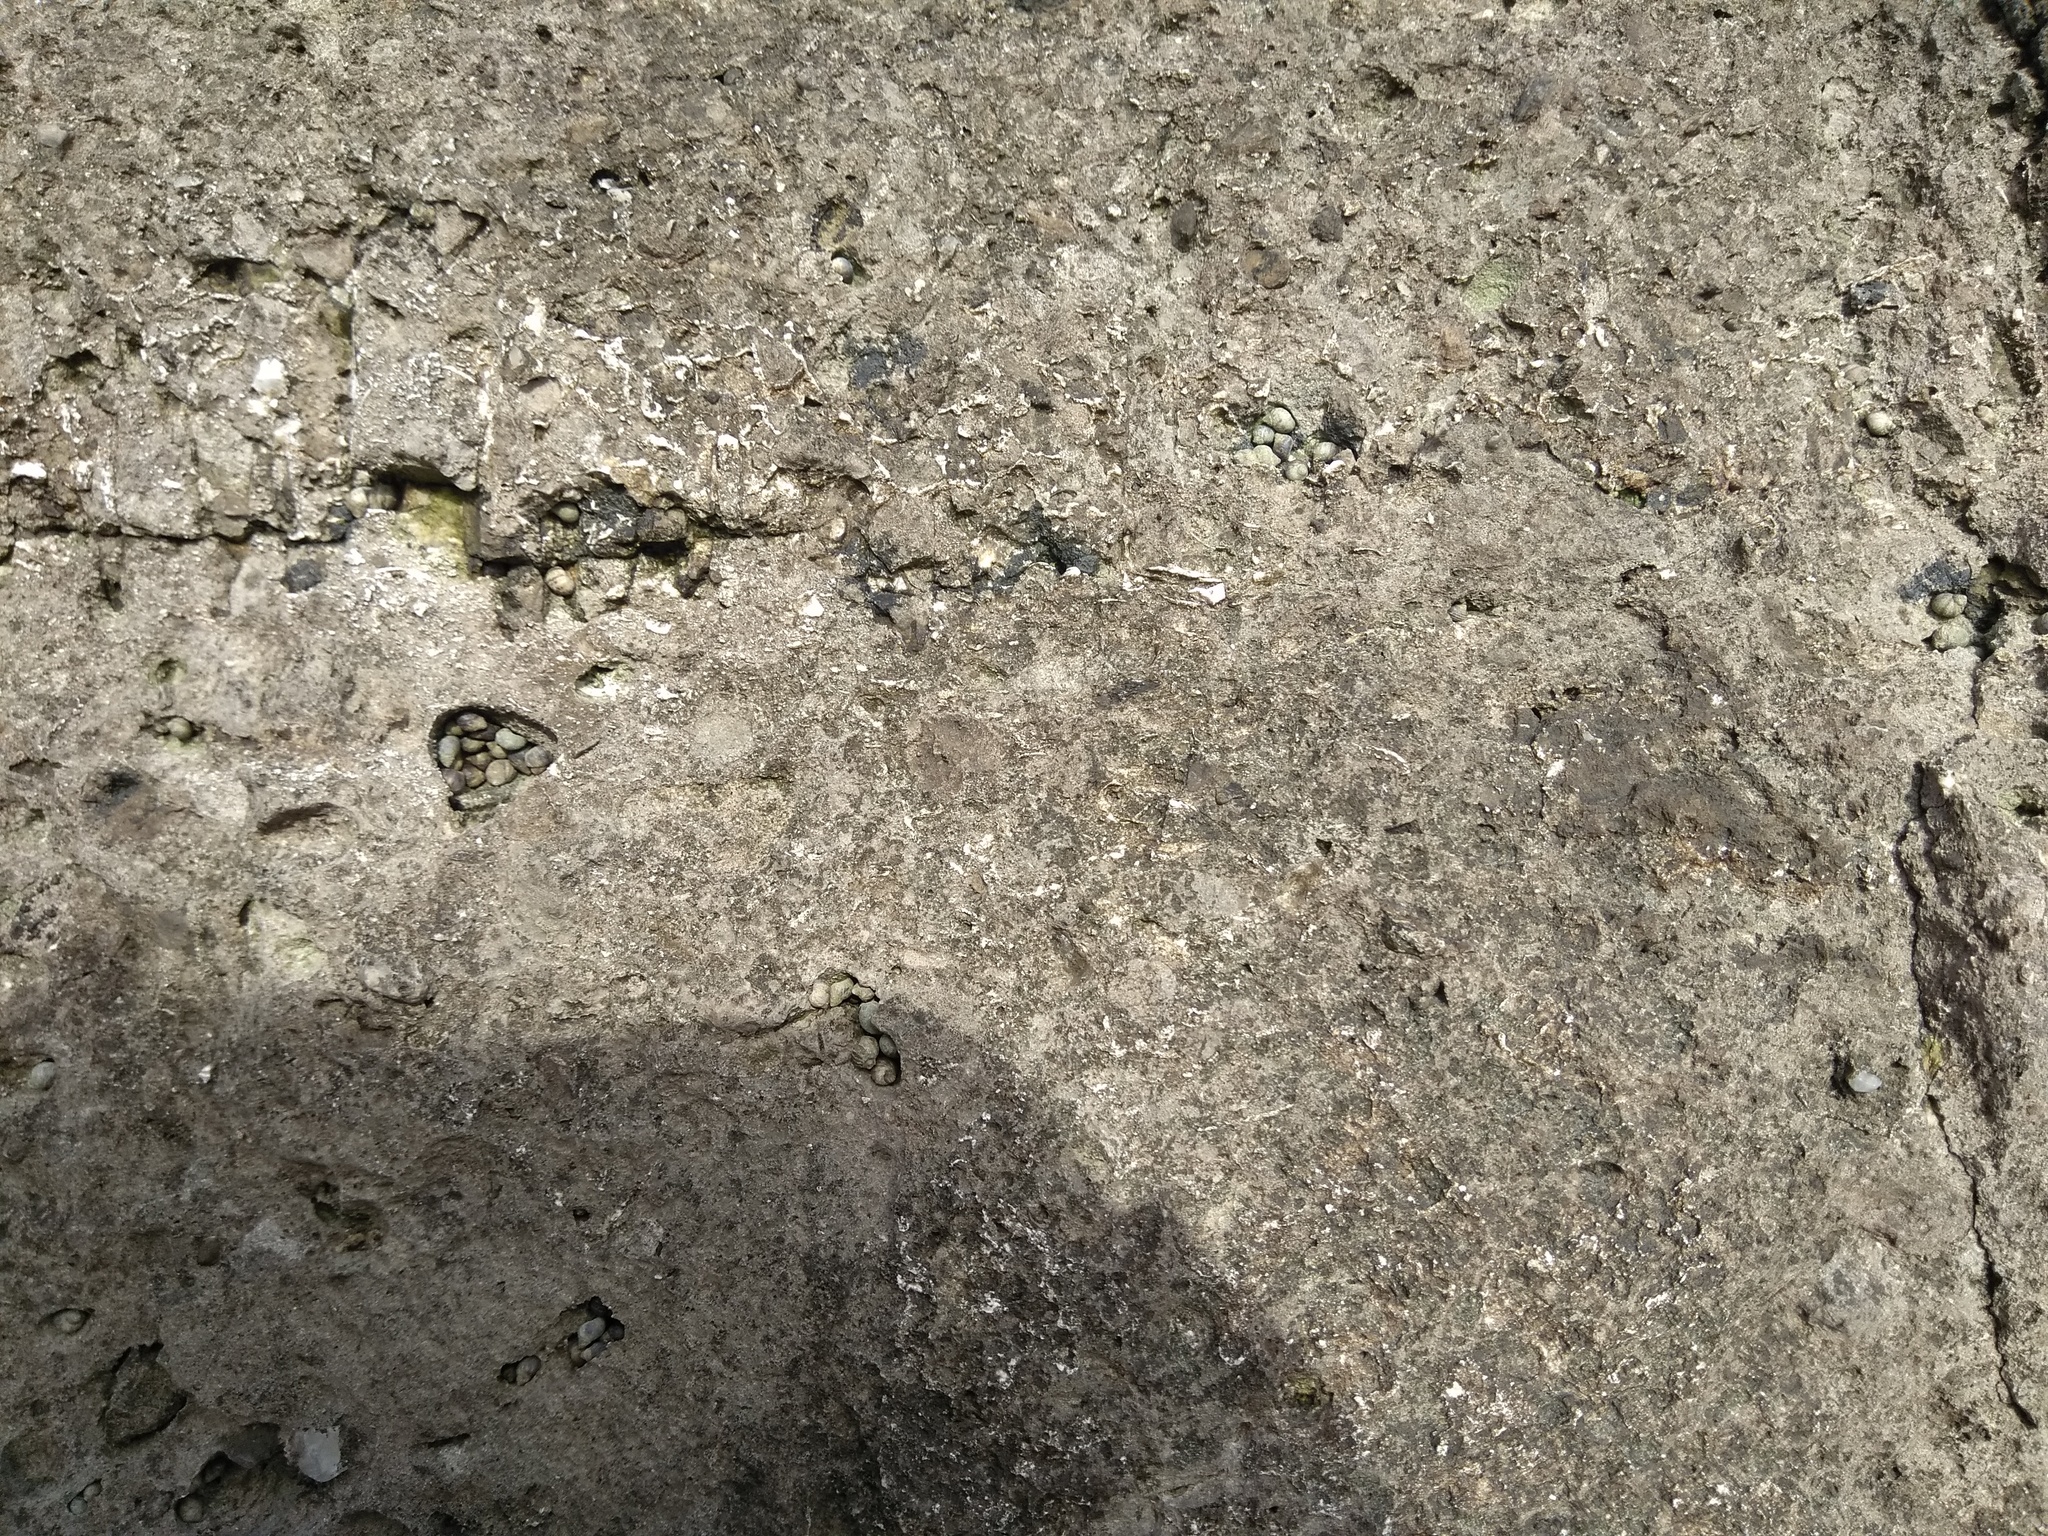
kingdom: Animalia
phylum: Mollusca
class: Gastropoda
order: Littorinimorpha
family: Littorinidae
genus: Melarhaphe
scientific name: Melarhaphe neritoides
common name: Small periwinkle
